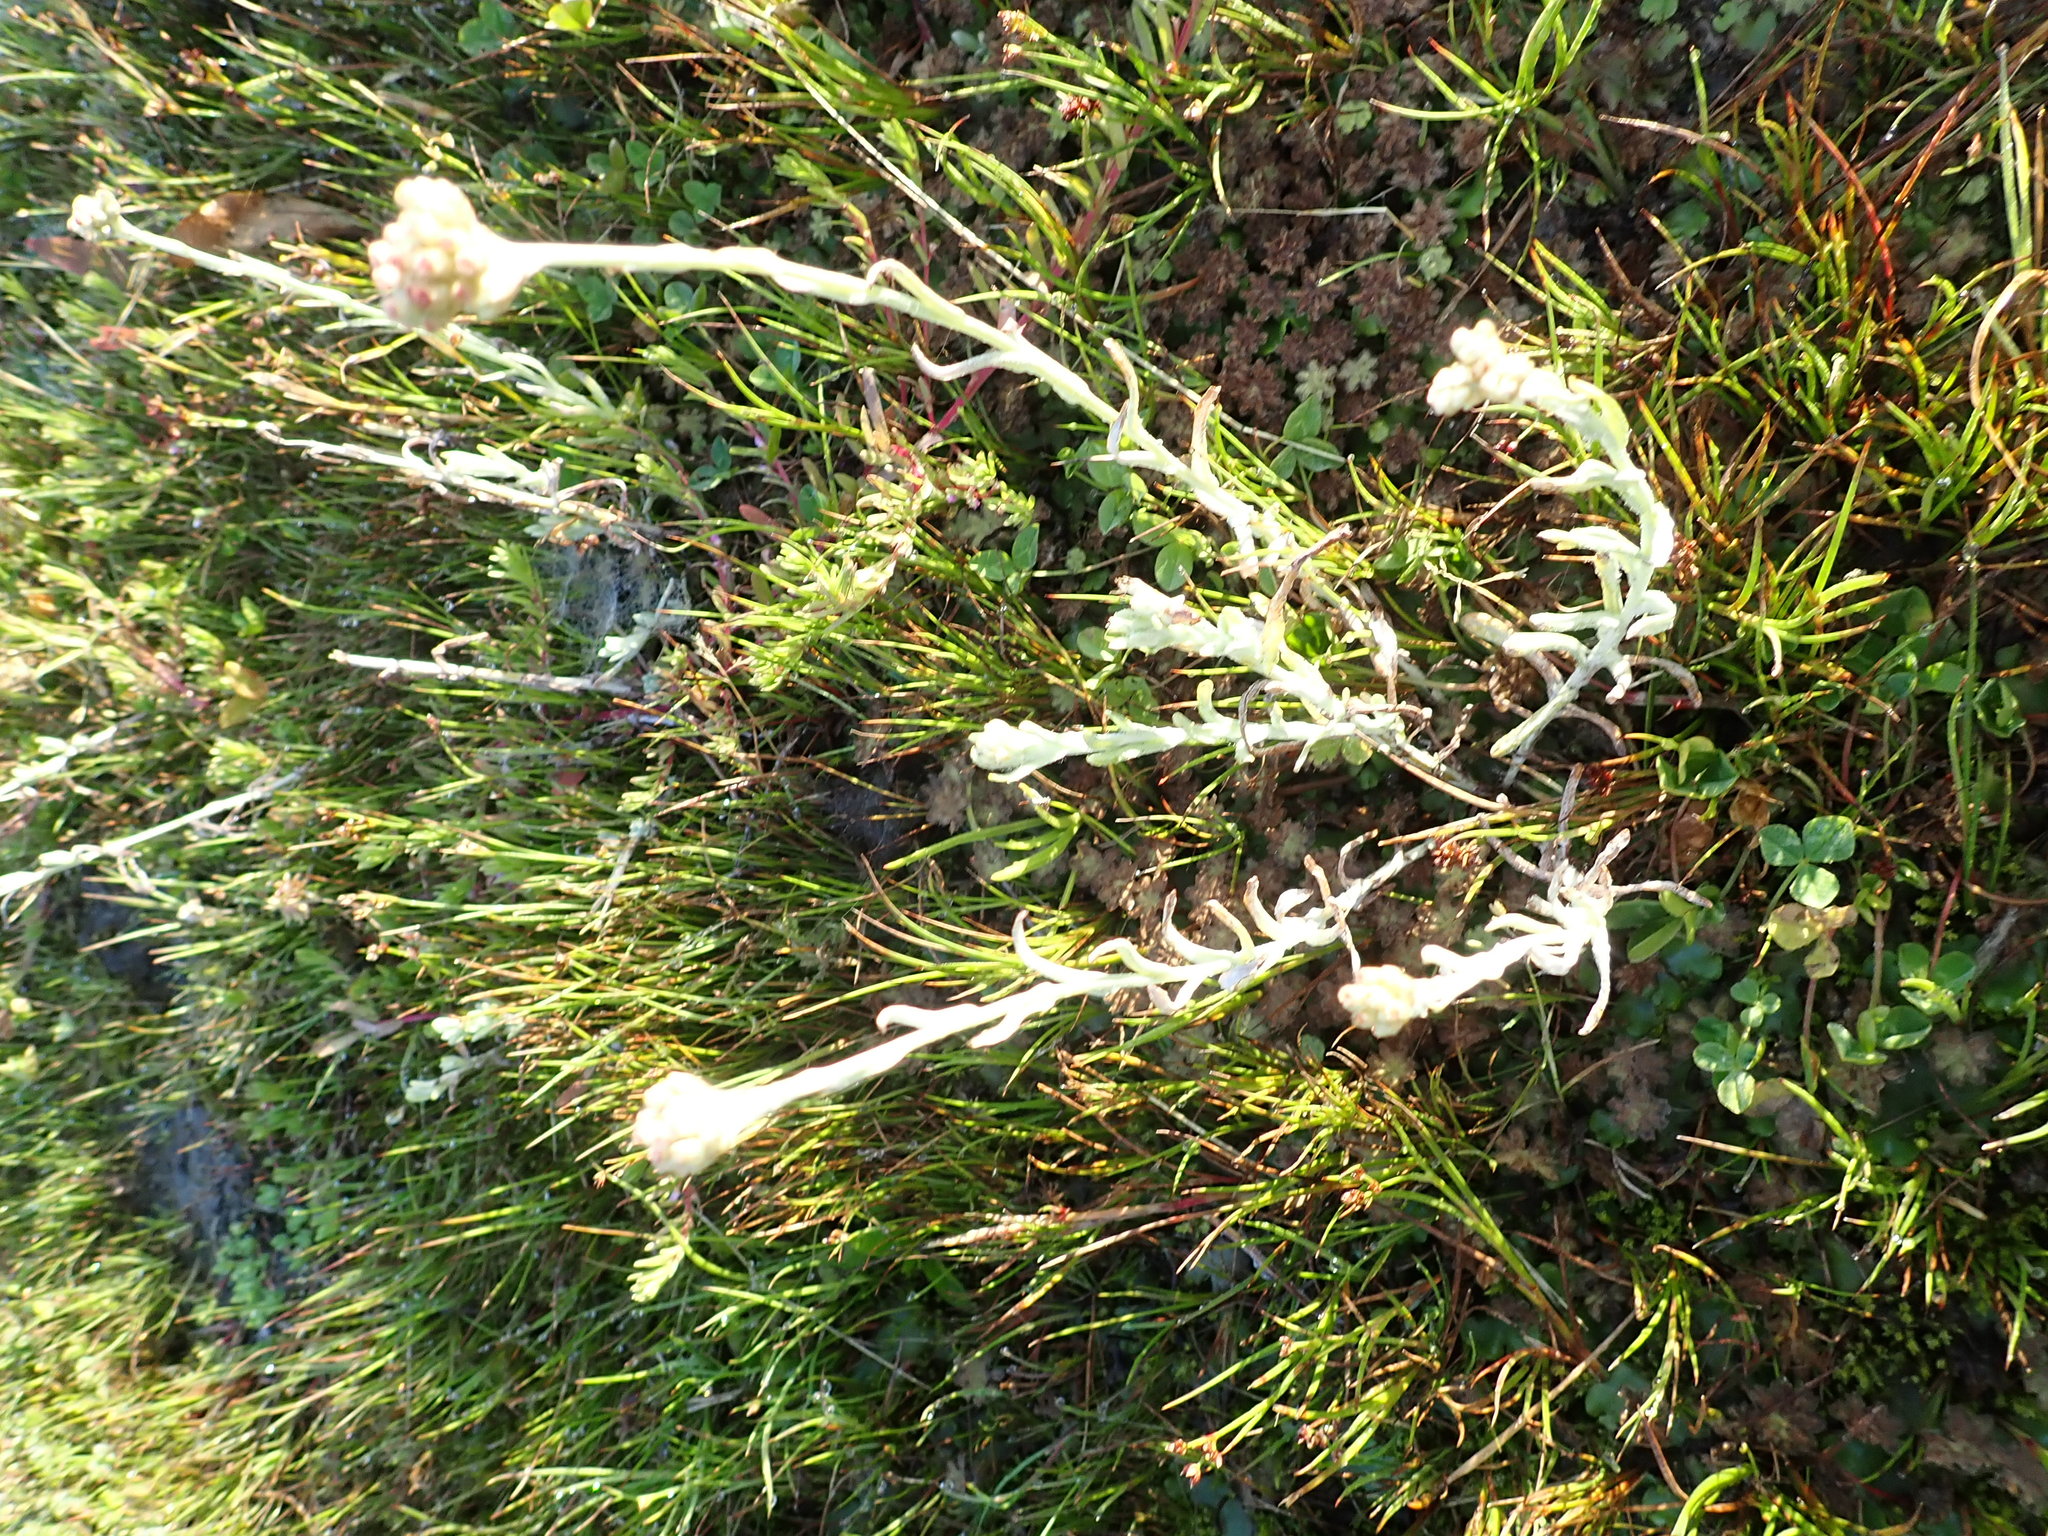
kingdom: Plantae
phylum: Tracheophyta
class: Magnoliopsida
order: Asterales
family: Asteraceae
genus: Helichrysum
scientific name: Helichrysum luteoalbum
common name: Daisy
